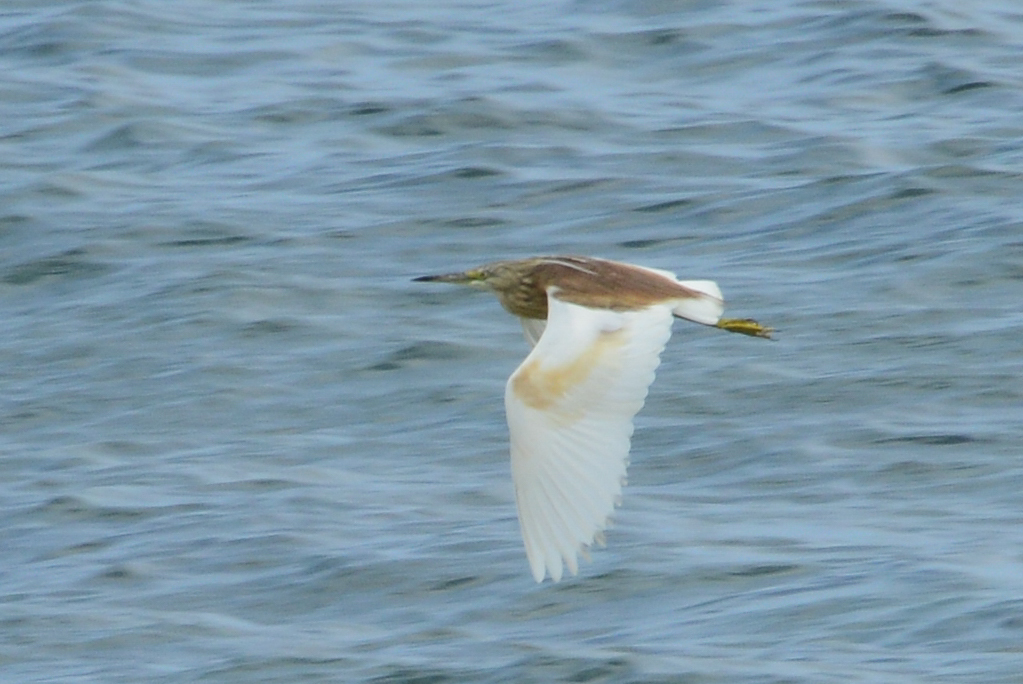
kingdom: Animalia
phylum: Chordata
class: Aves
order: Pelecaniformes
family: Ardeidae
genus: Ardeola
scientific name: Ardeola ralloides
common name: Squacco heron
